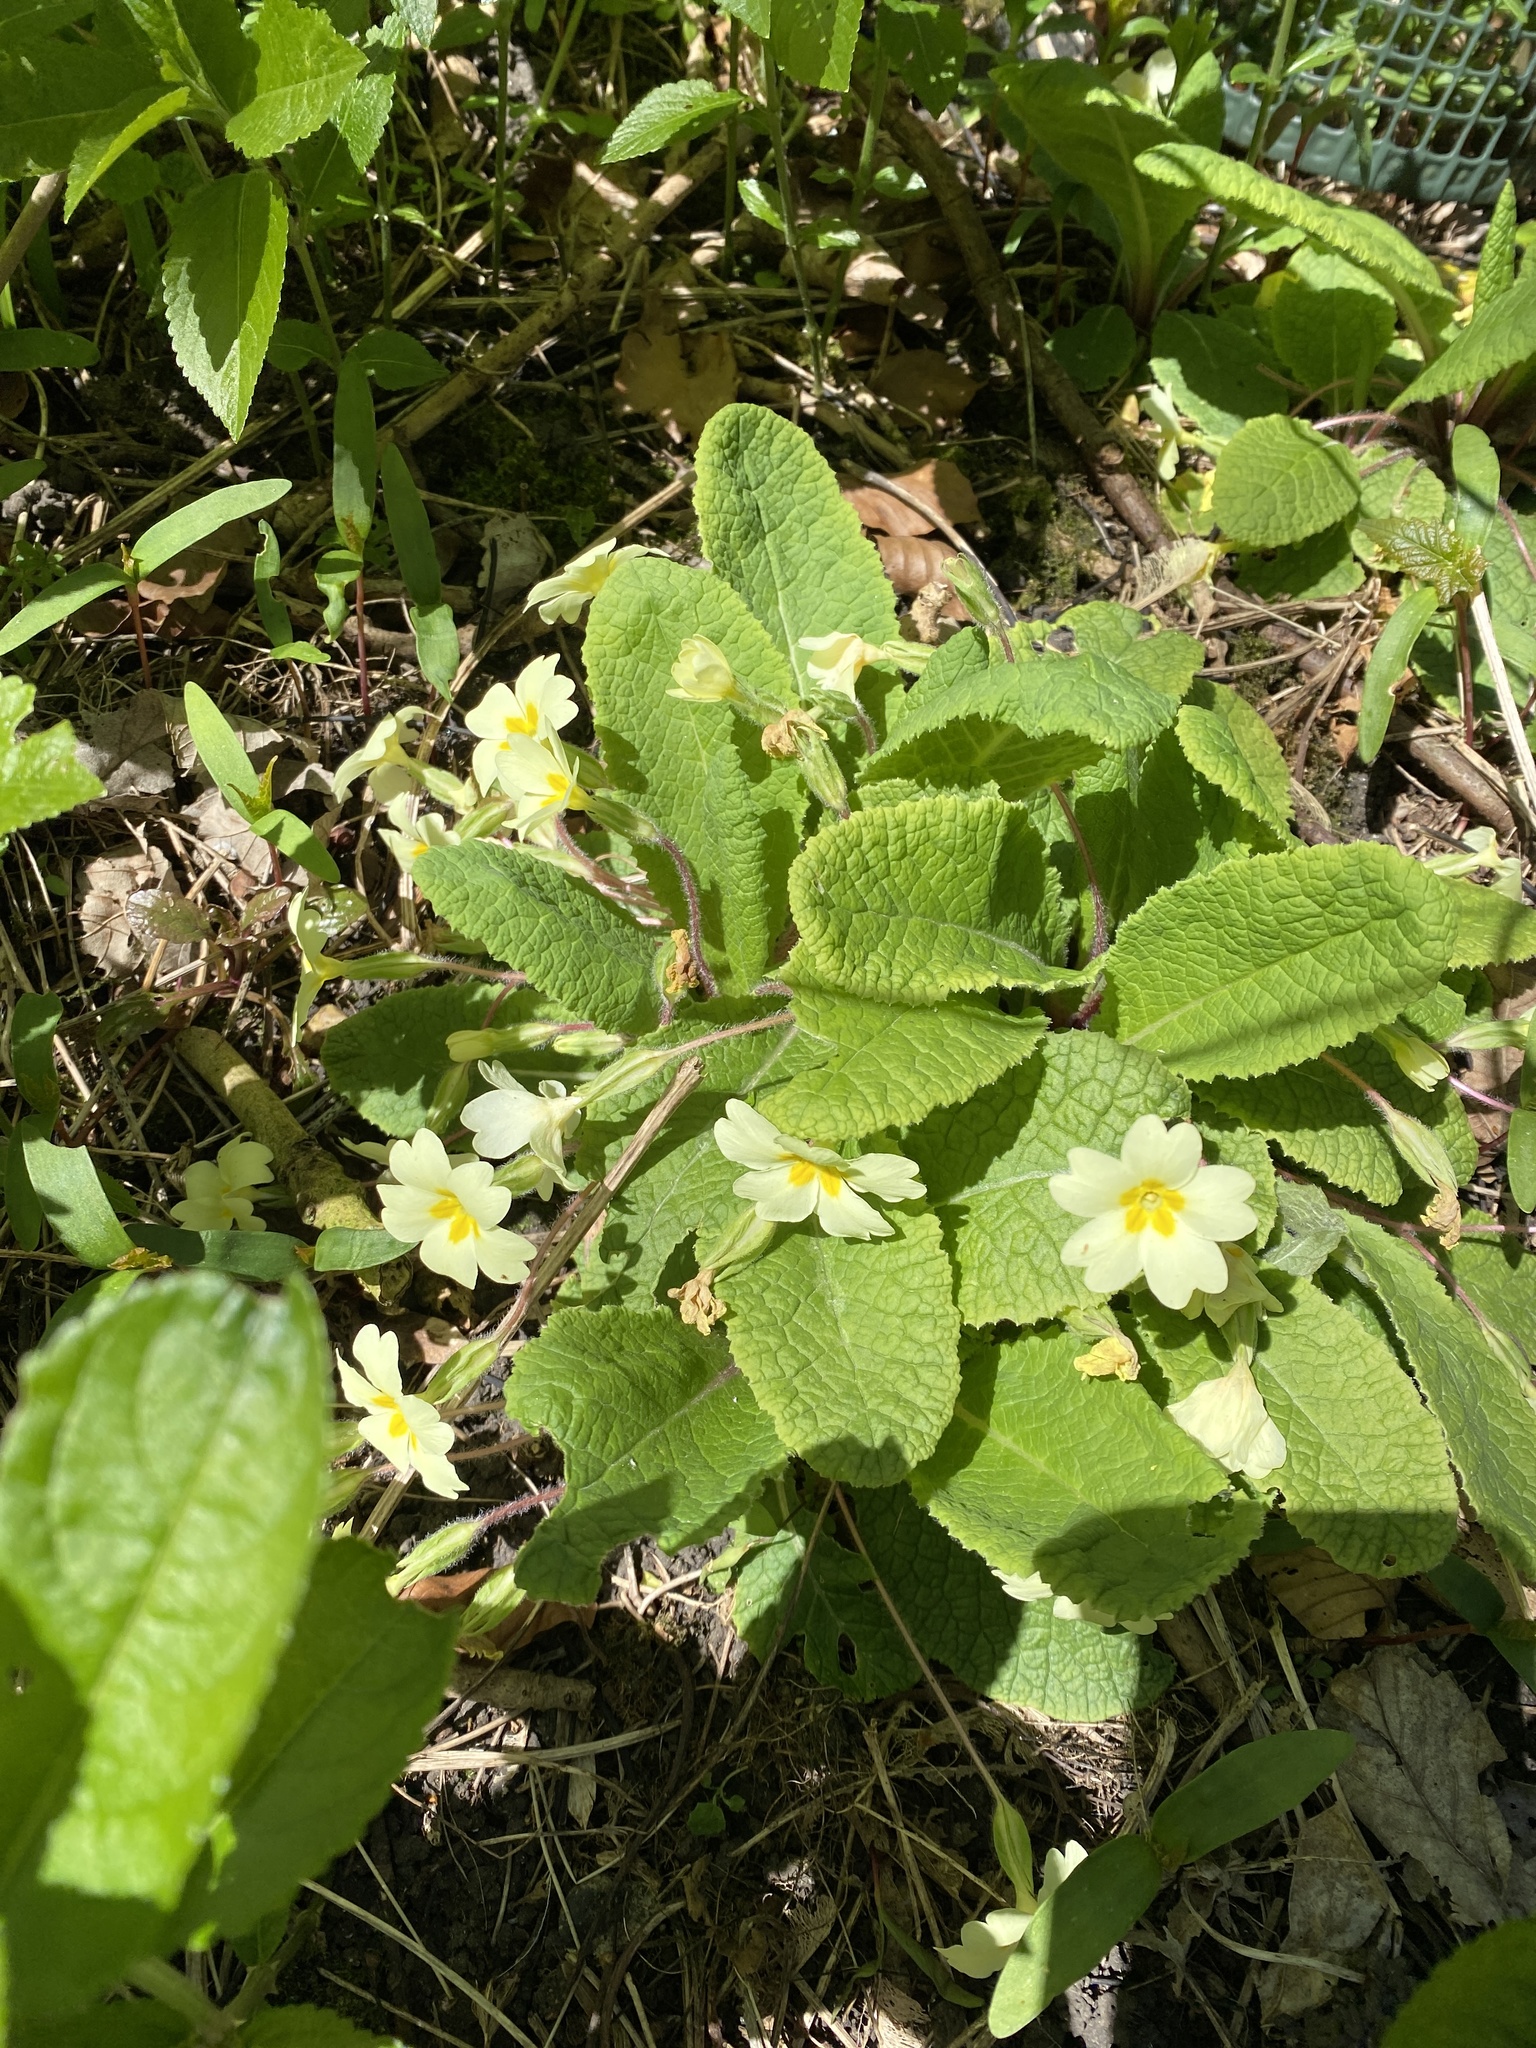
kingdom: Plantae
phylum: Tracheophyta
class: Magnoliopsida
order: Ericales
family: Primulaceae
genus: Primula
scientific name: Primula vulgaris
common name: Primrose
